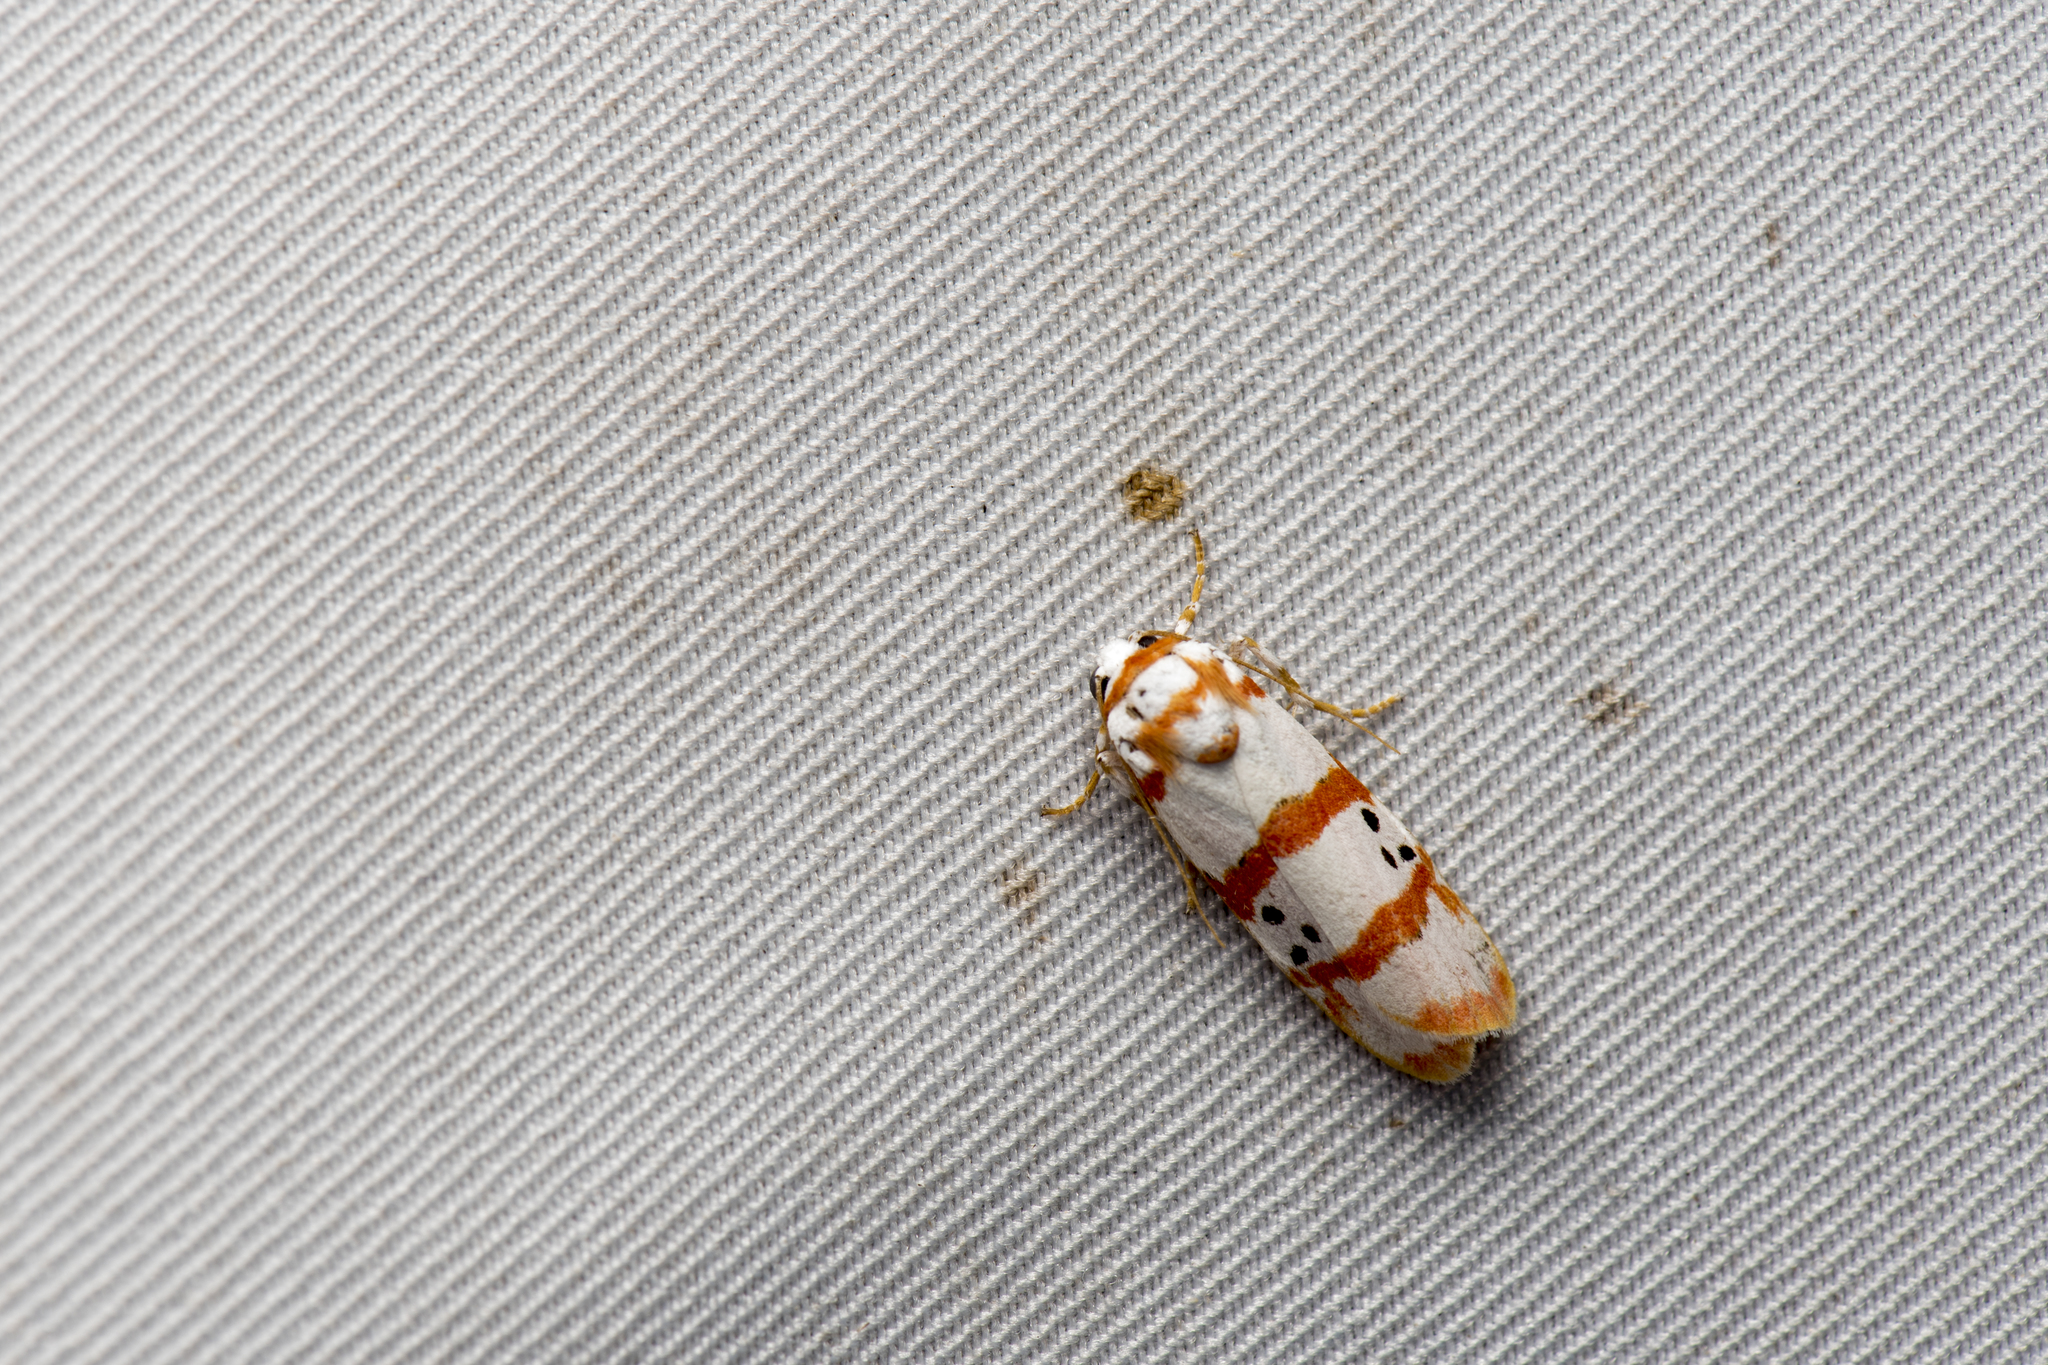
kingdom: Animalia
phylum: Arthropoda
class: Insecta
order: Lepidoptera
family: Erebidae
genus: Cyana
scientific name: Cyana quadripartita
